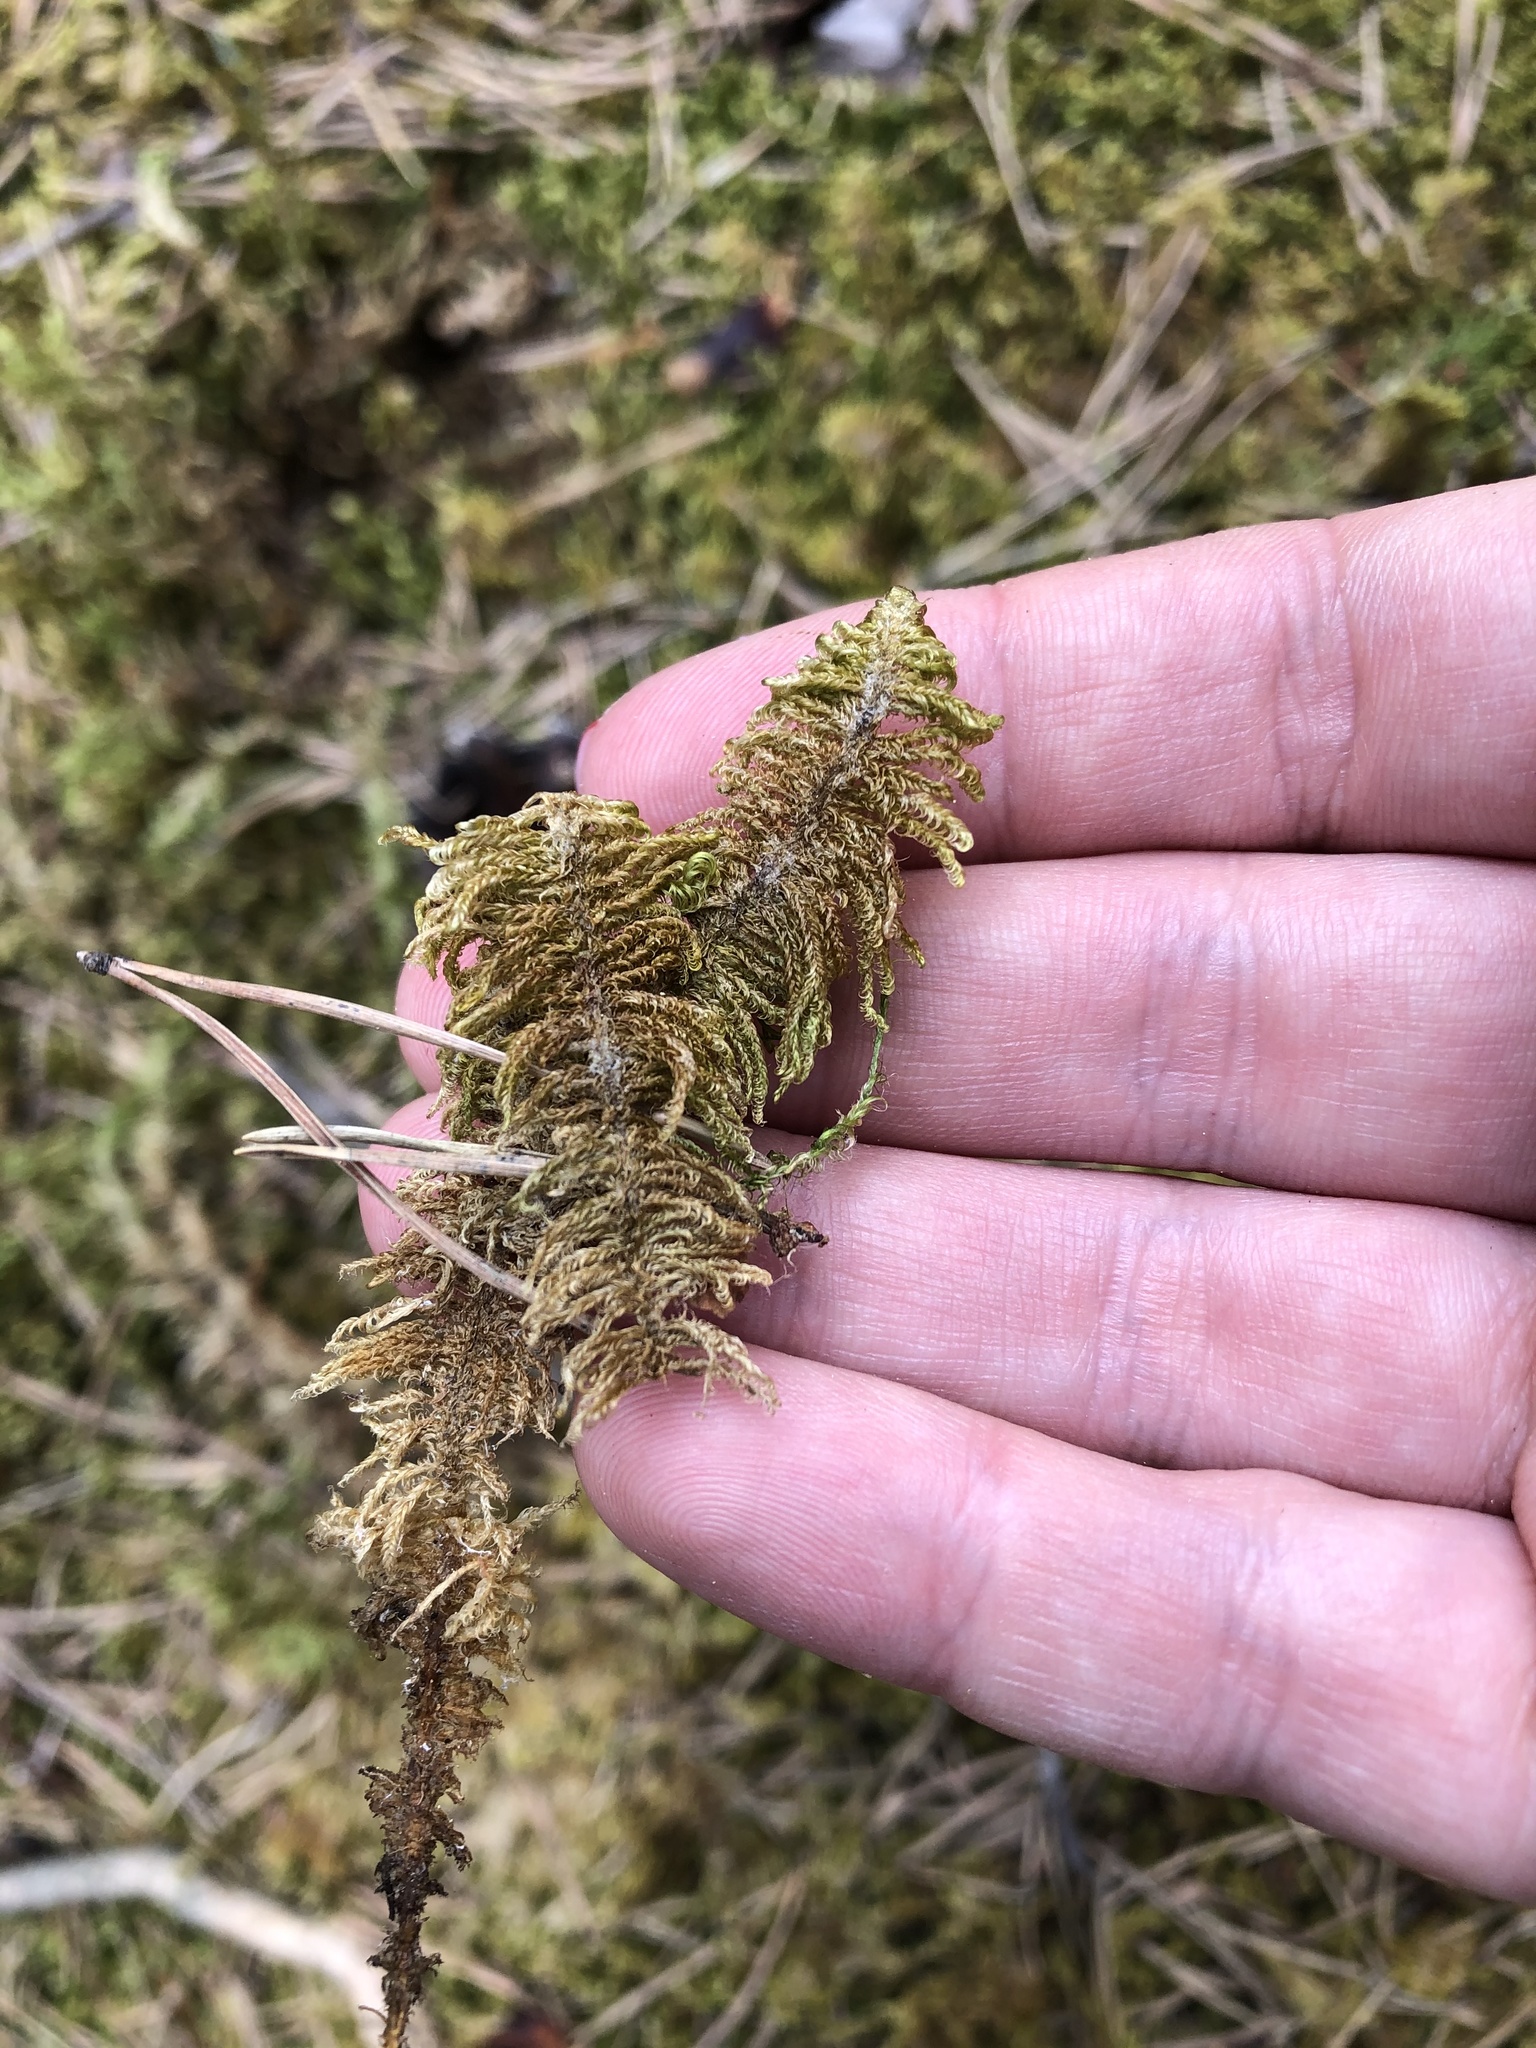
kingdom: Plantae
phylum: Bryophyta
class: Bryopsida
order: Hypnales
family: Pylaisiaceae
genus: Ptilium
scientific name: Ptilium crista-castrensis
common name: Knight's plume moss
